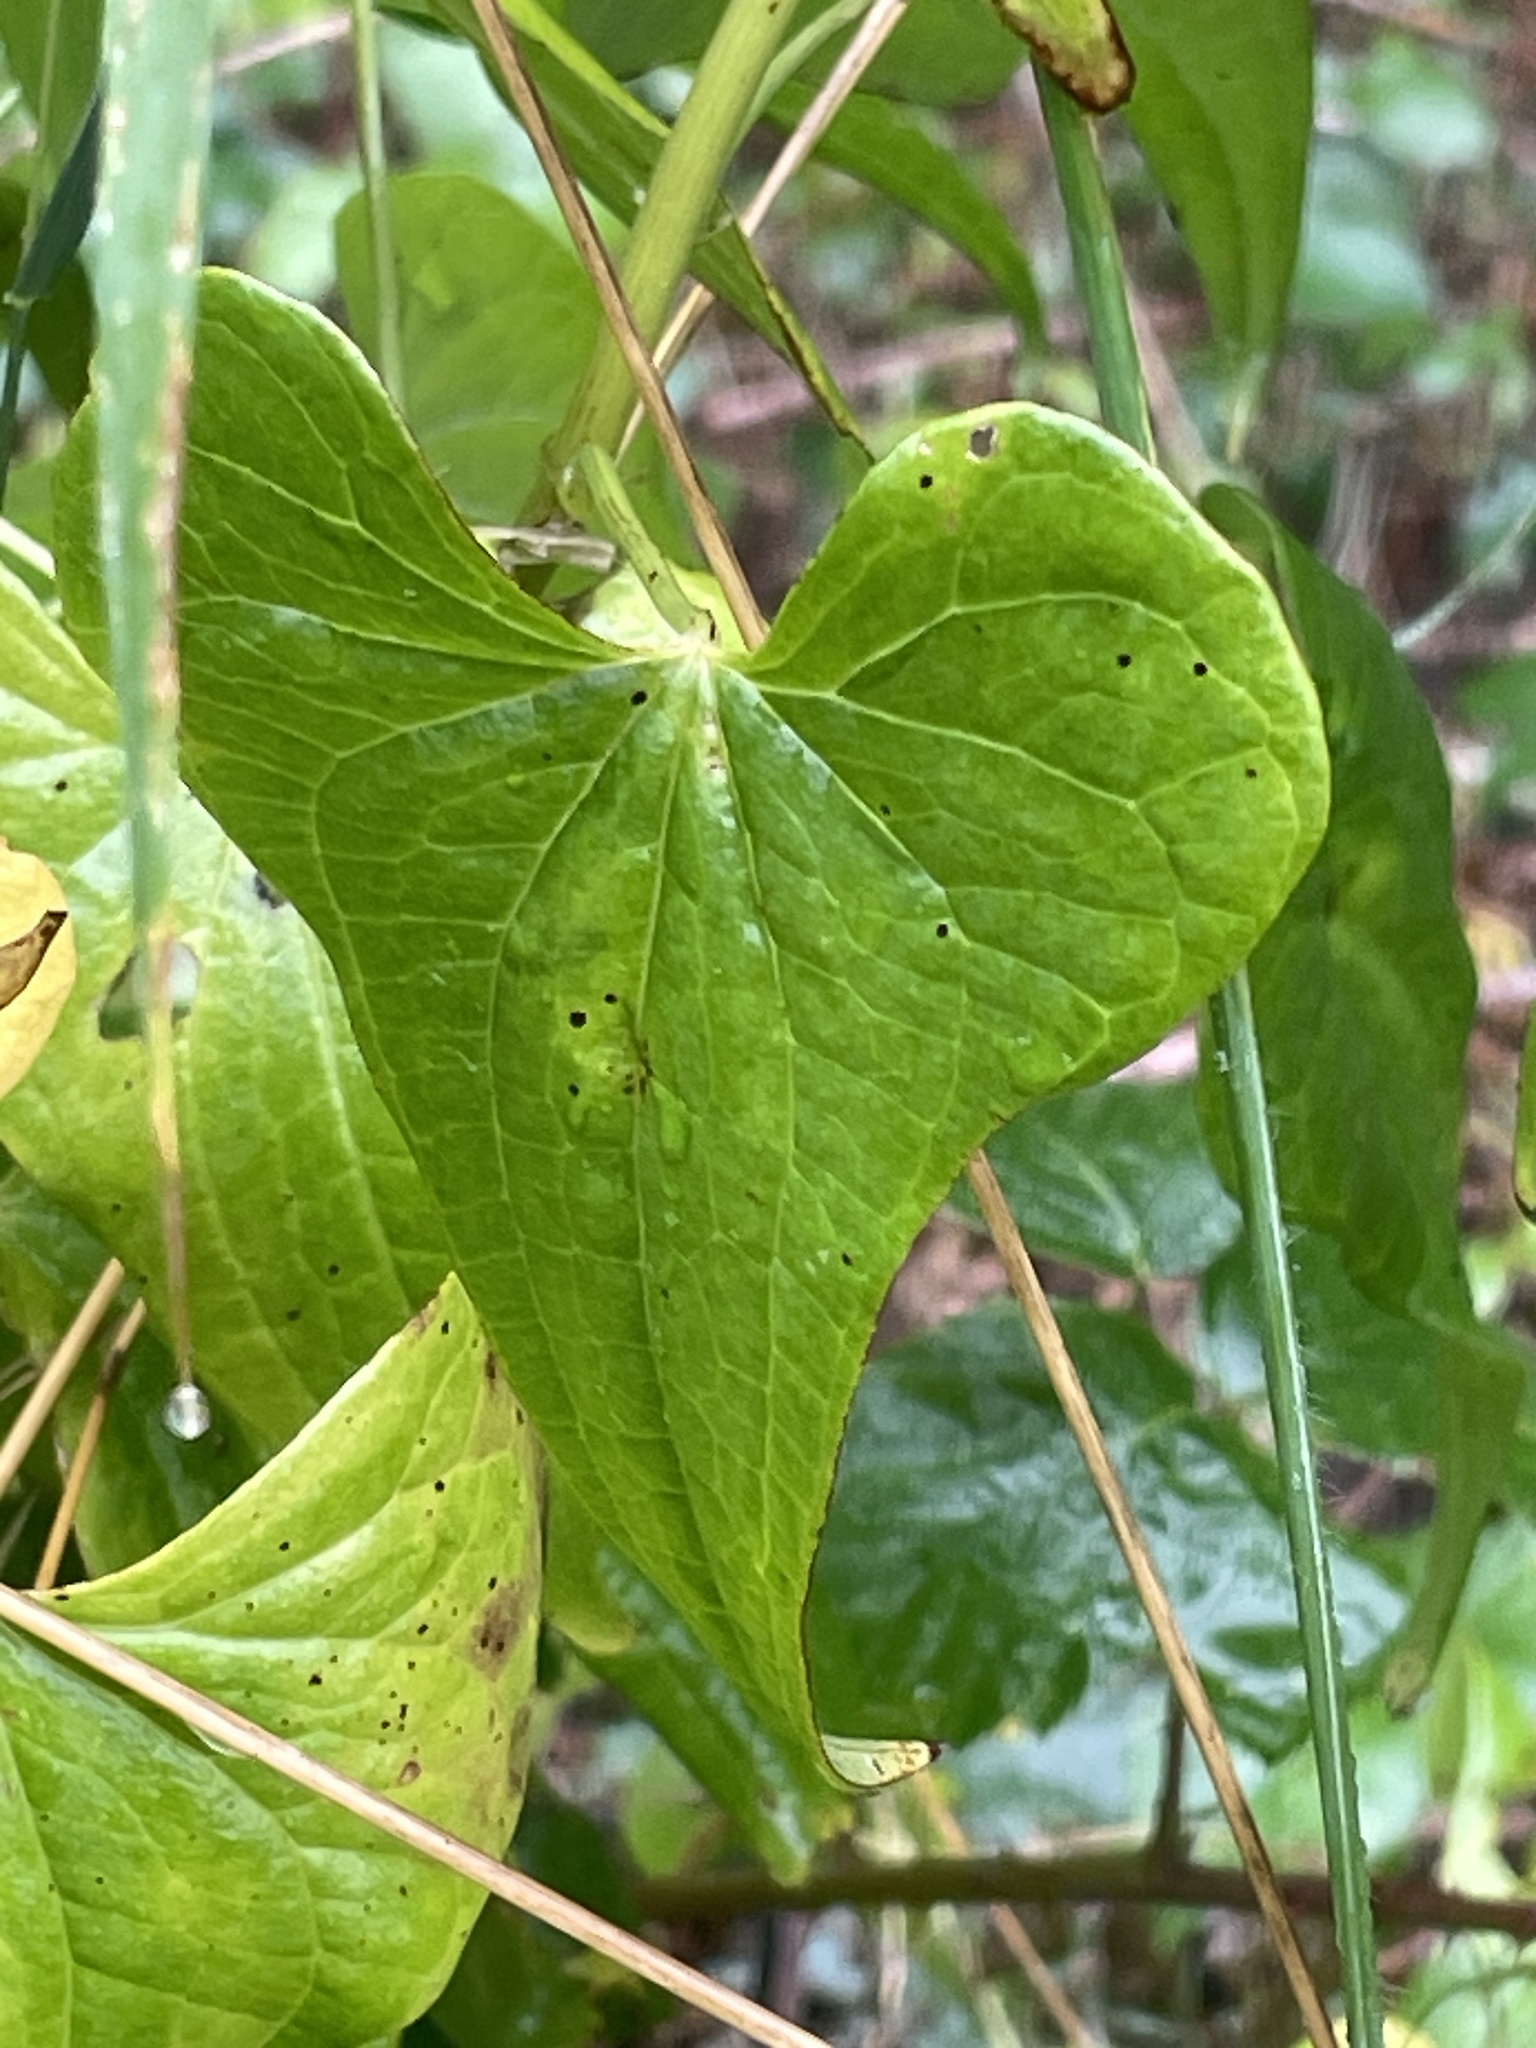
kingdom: Plantae
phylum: Tracheophyta
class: Liliopsida
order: Dioscoreales
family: Dioscoreaceae
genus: Dioscorea
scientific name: Dioscorea communis
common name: Black-bindweed
